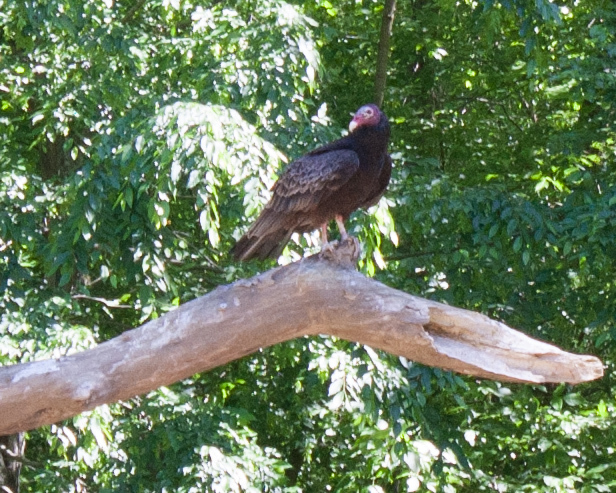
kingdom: Animalia
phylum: Chordata
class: Aves
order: Accipitriformes
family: Cathartidae
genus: Cathartes
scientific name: Cathartes aura
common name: Turkey vulture
